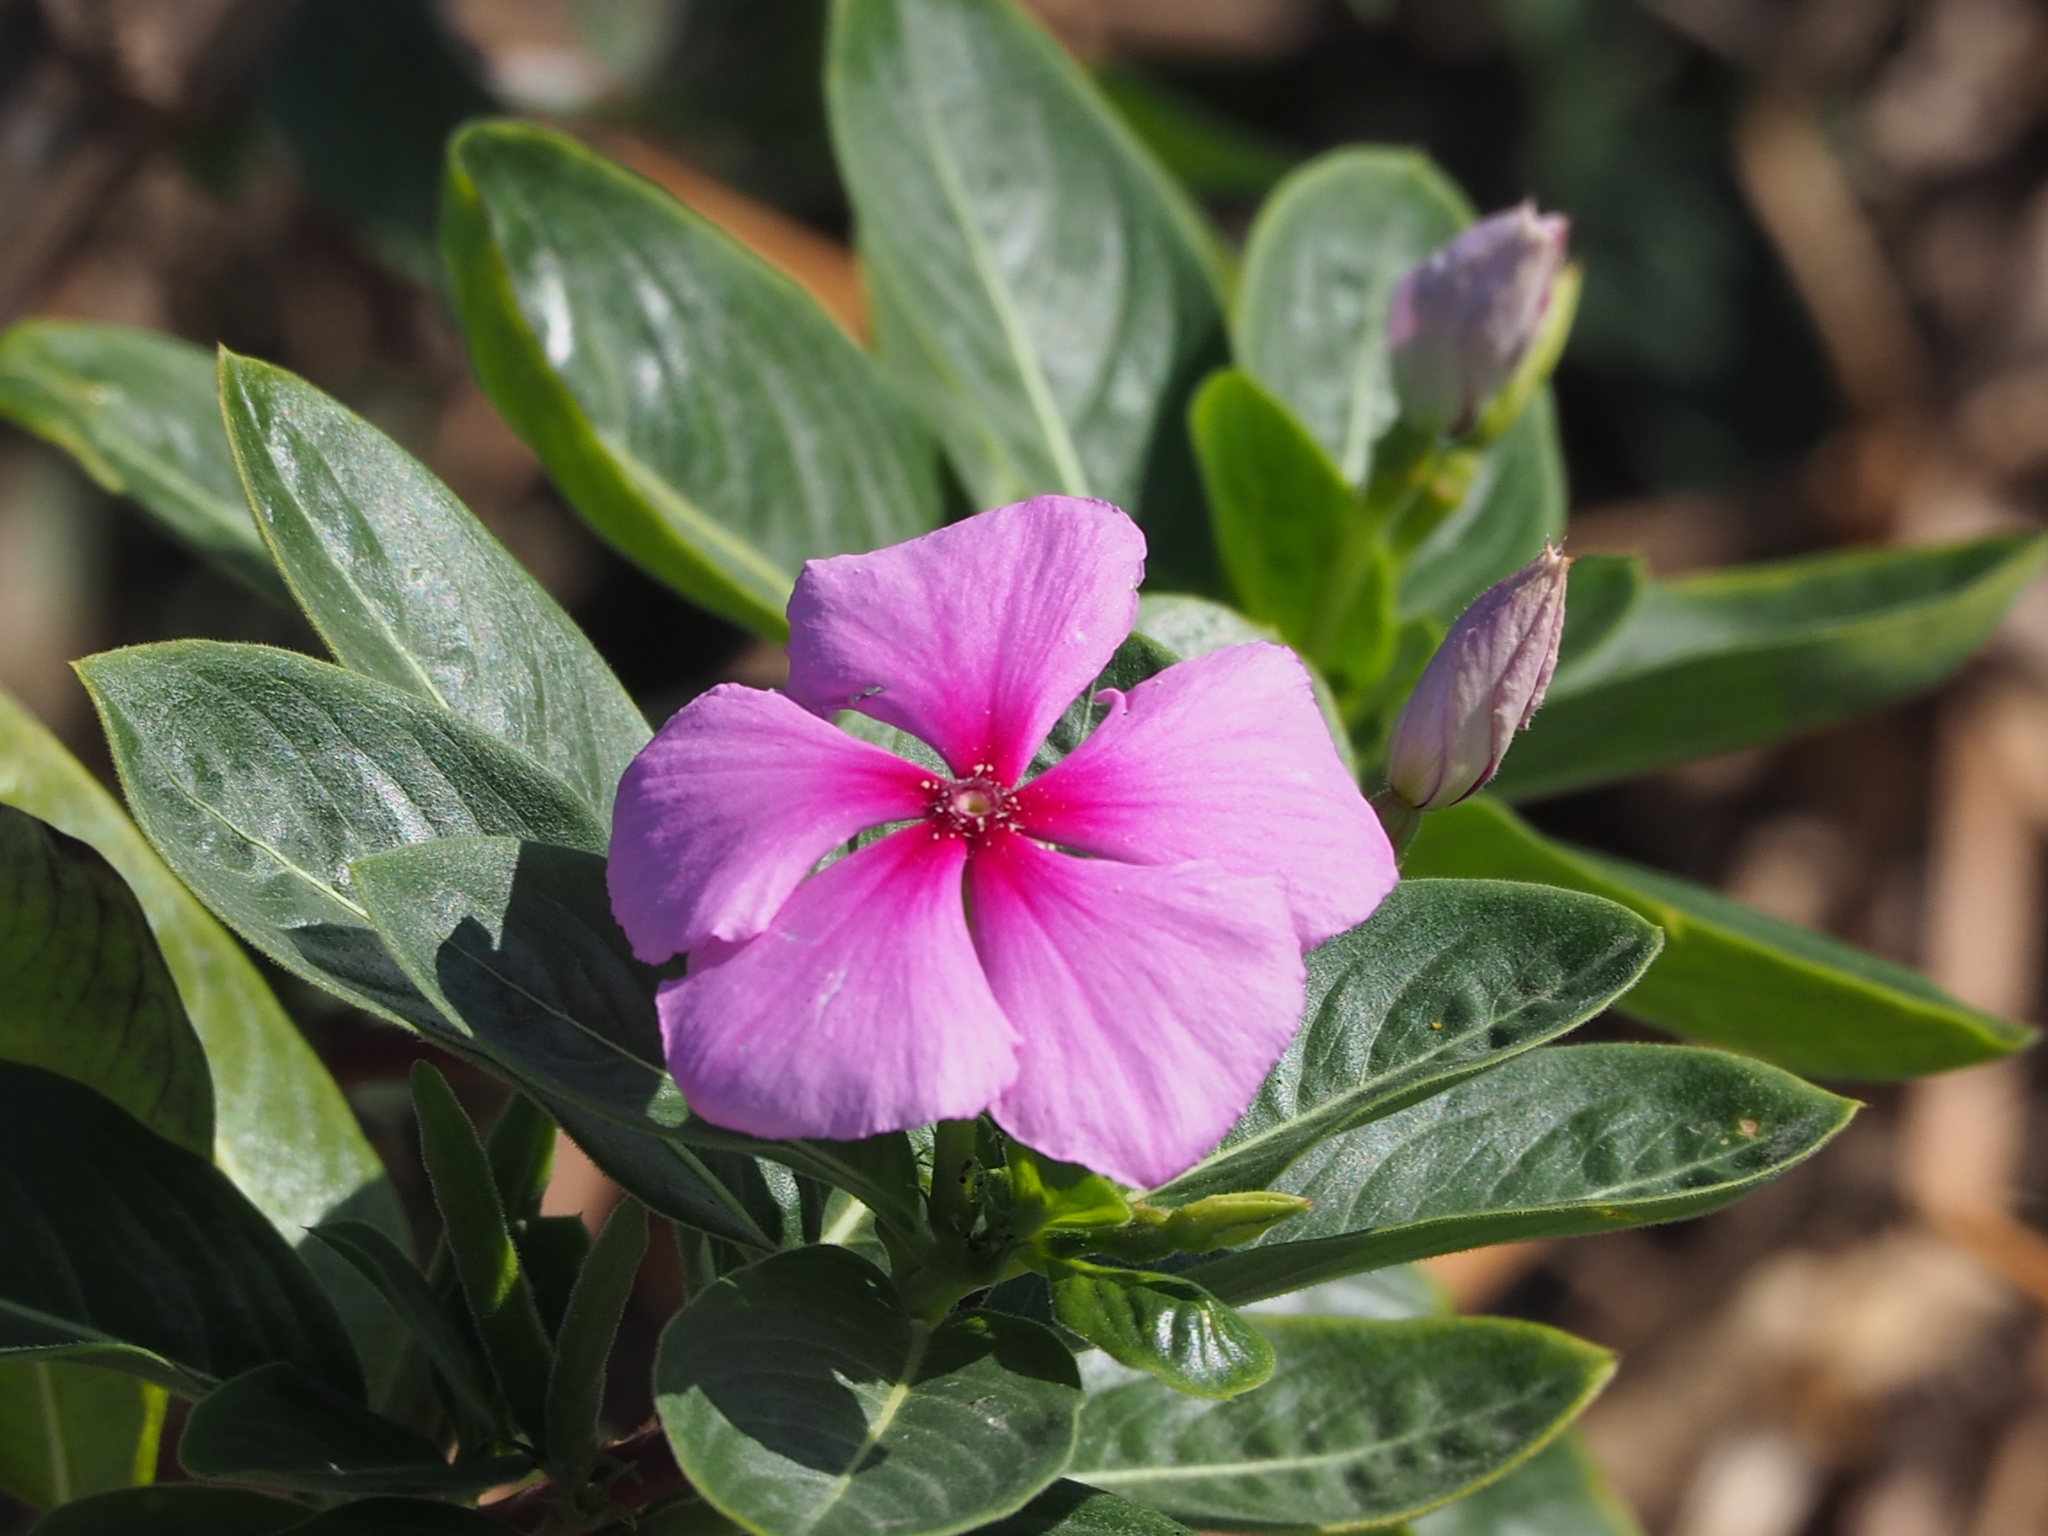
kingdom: Plantae
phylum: Tracheophyta
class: Magnoliopsida
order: Gentianales
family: Apocynaceae
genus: Catharanthus
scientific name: Catharanthus roseus
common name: Madagascar periwinkle
